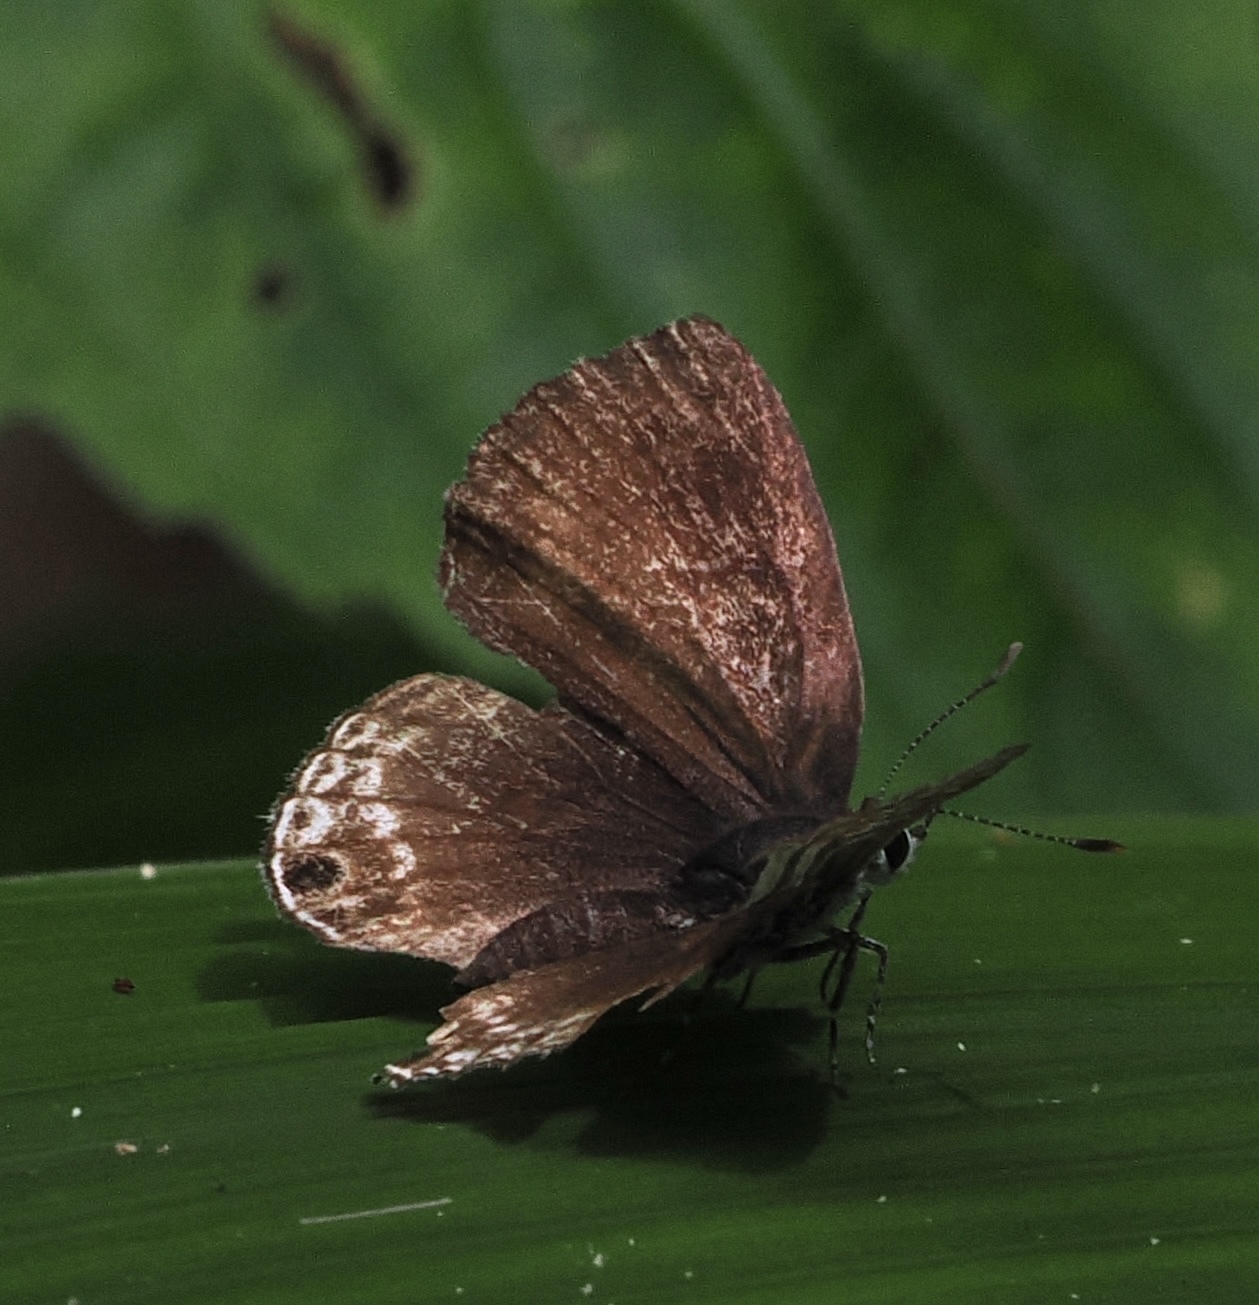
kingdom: Animalia
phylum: Arthropoda
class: Insecta
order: Lepidoptera
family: Lycaenidae
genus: Anthene
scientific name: Anthene larydas
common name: Forest hairtail
